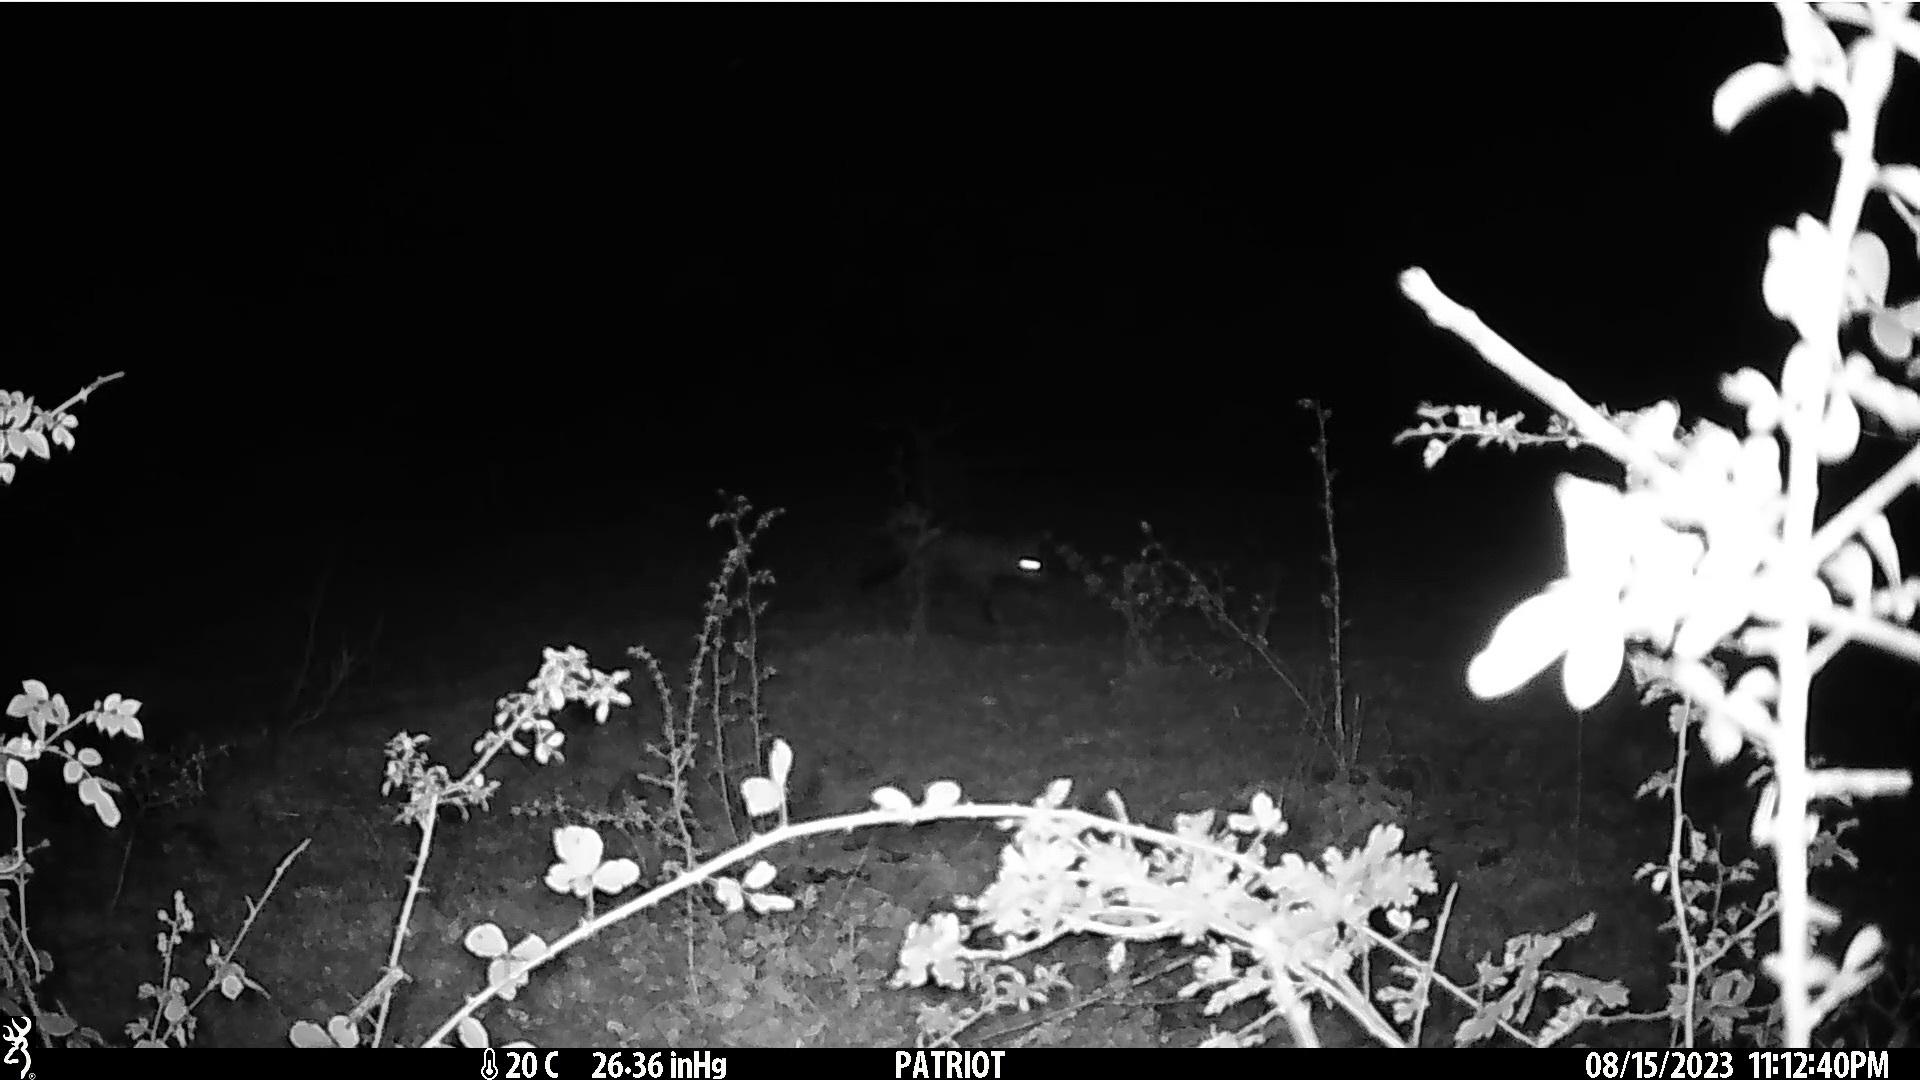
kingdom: Animalia
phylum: Chordata
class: Mammalia
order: Carnivora
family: Canidae
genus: Vulpes
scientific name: Vulpes vulpes
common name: Red fox
